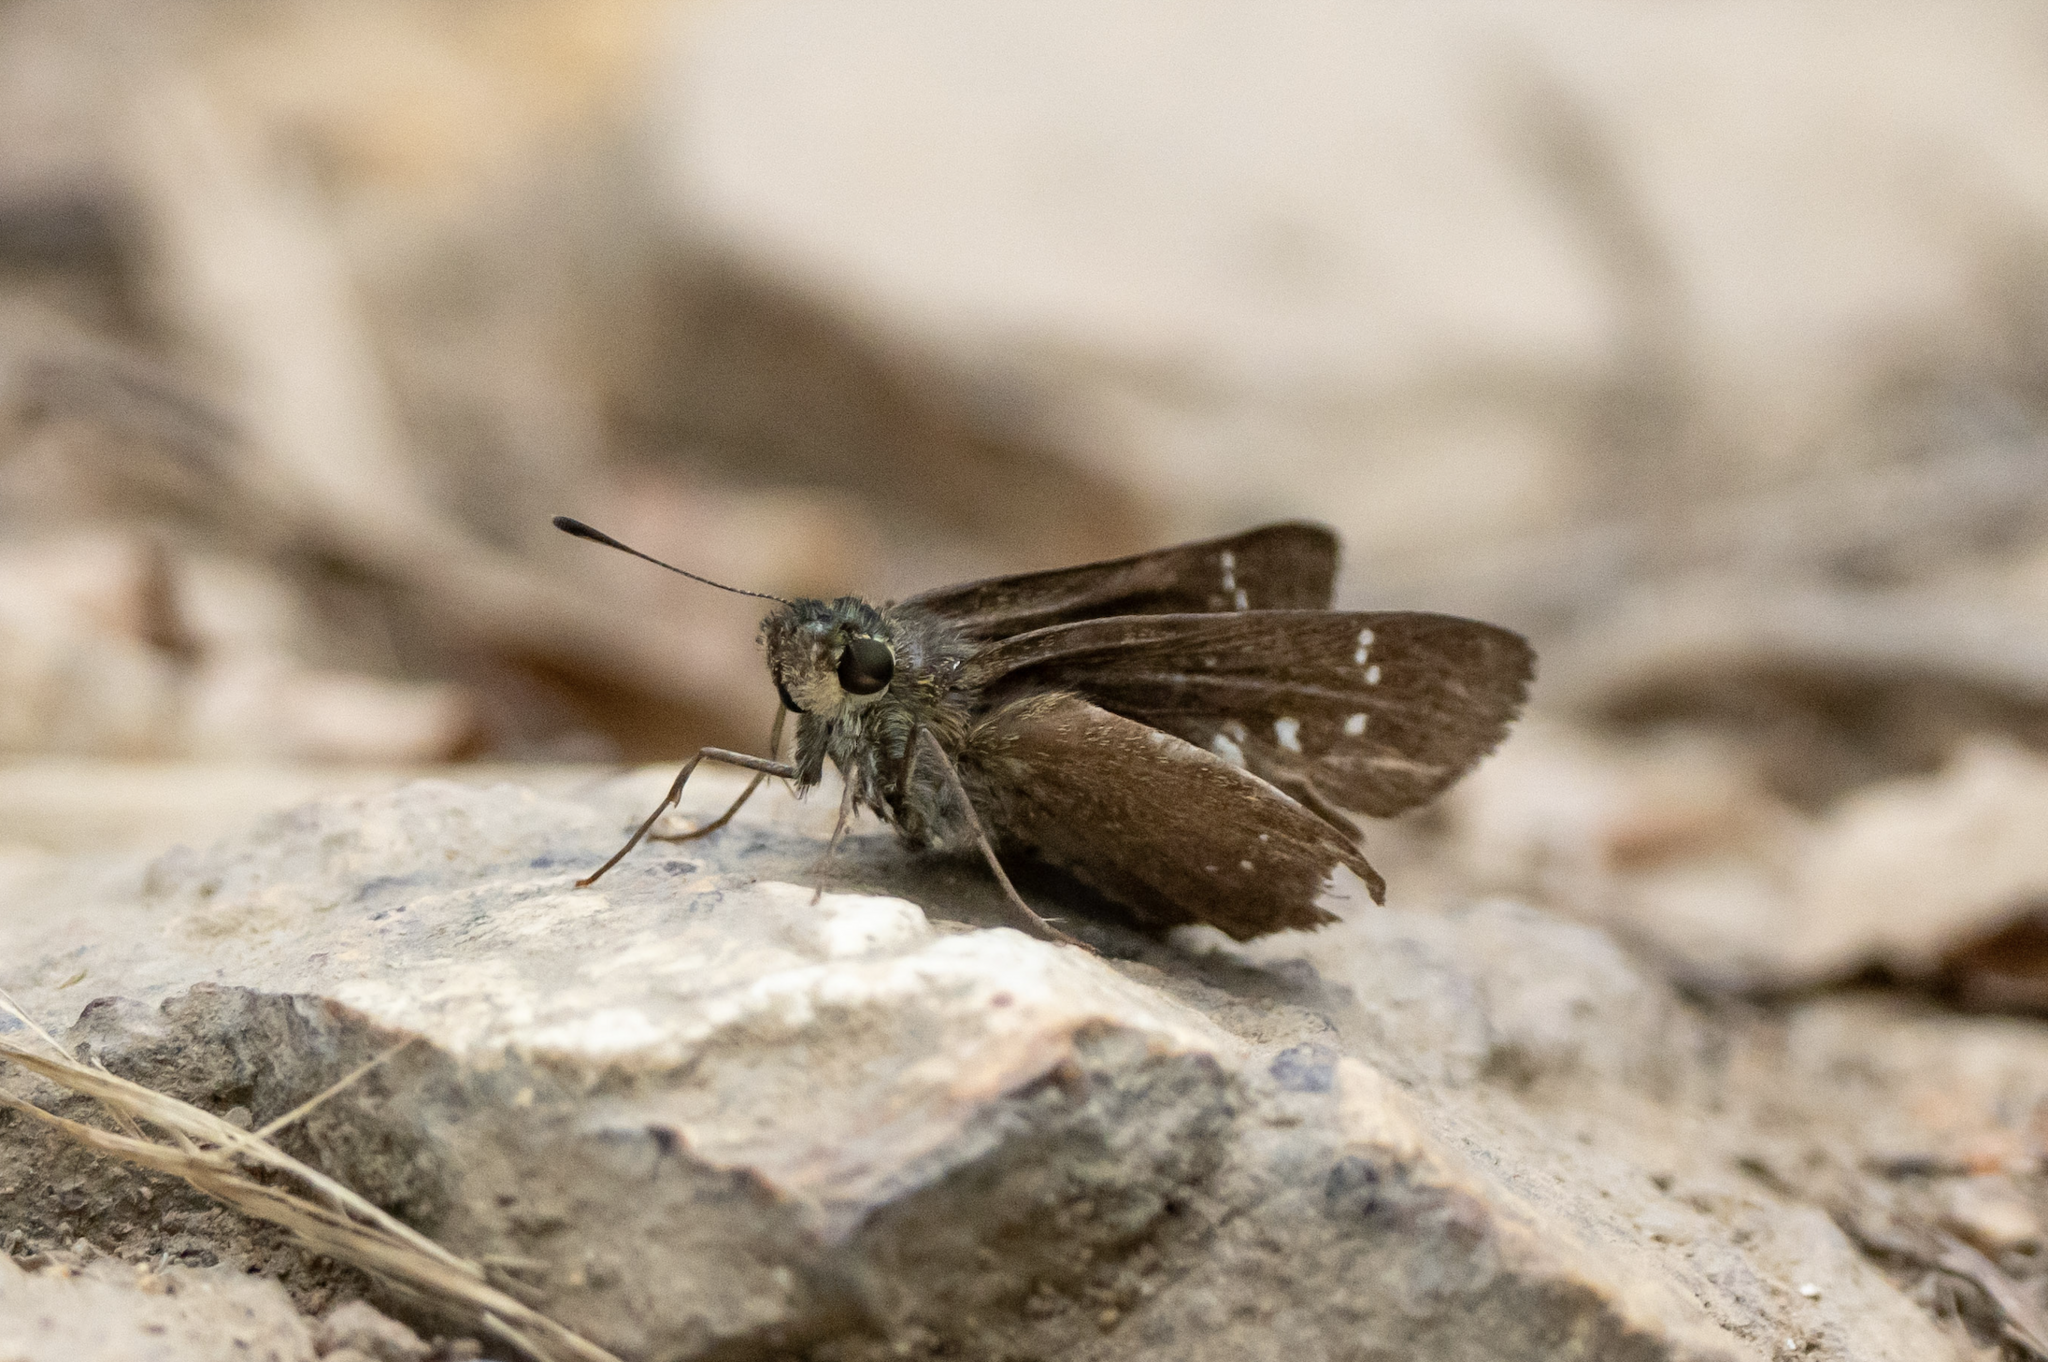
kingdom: Animalia
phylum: Arthropoda
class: Insecta
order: Lepidoptera
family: Hesperiidae
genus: Borbo
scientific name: Borbo cinnara
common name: Formosan swift
